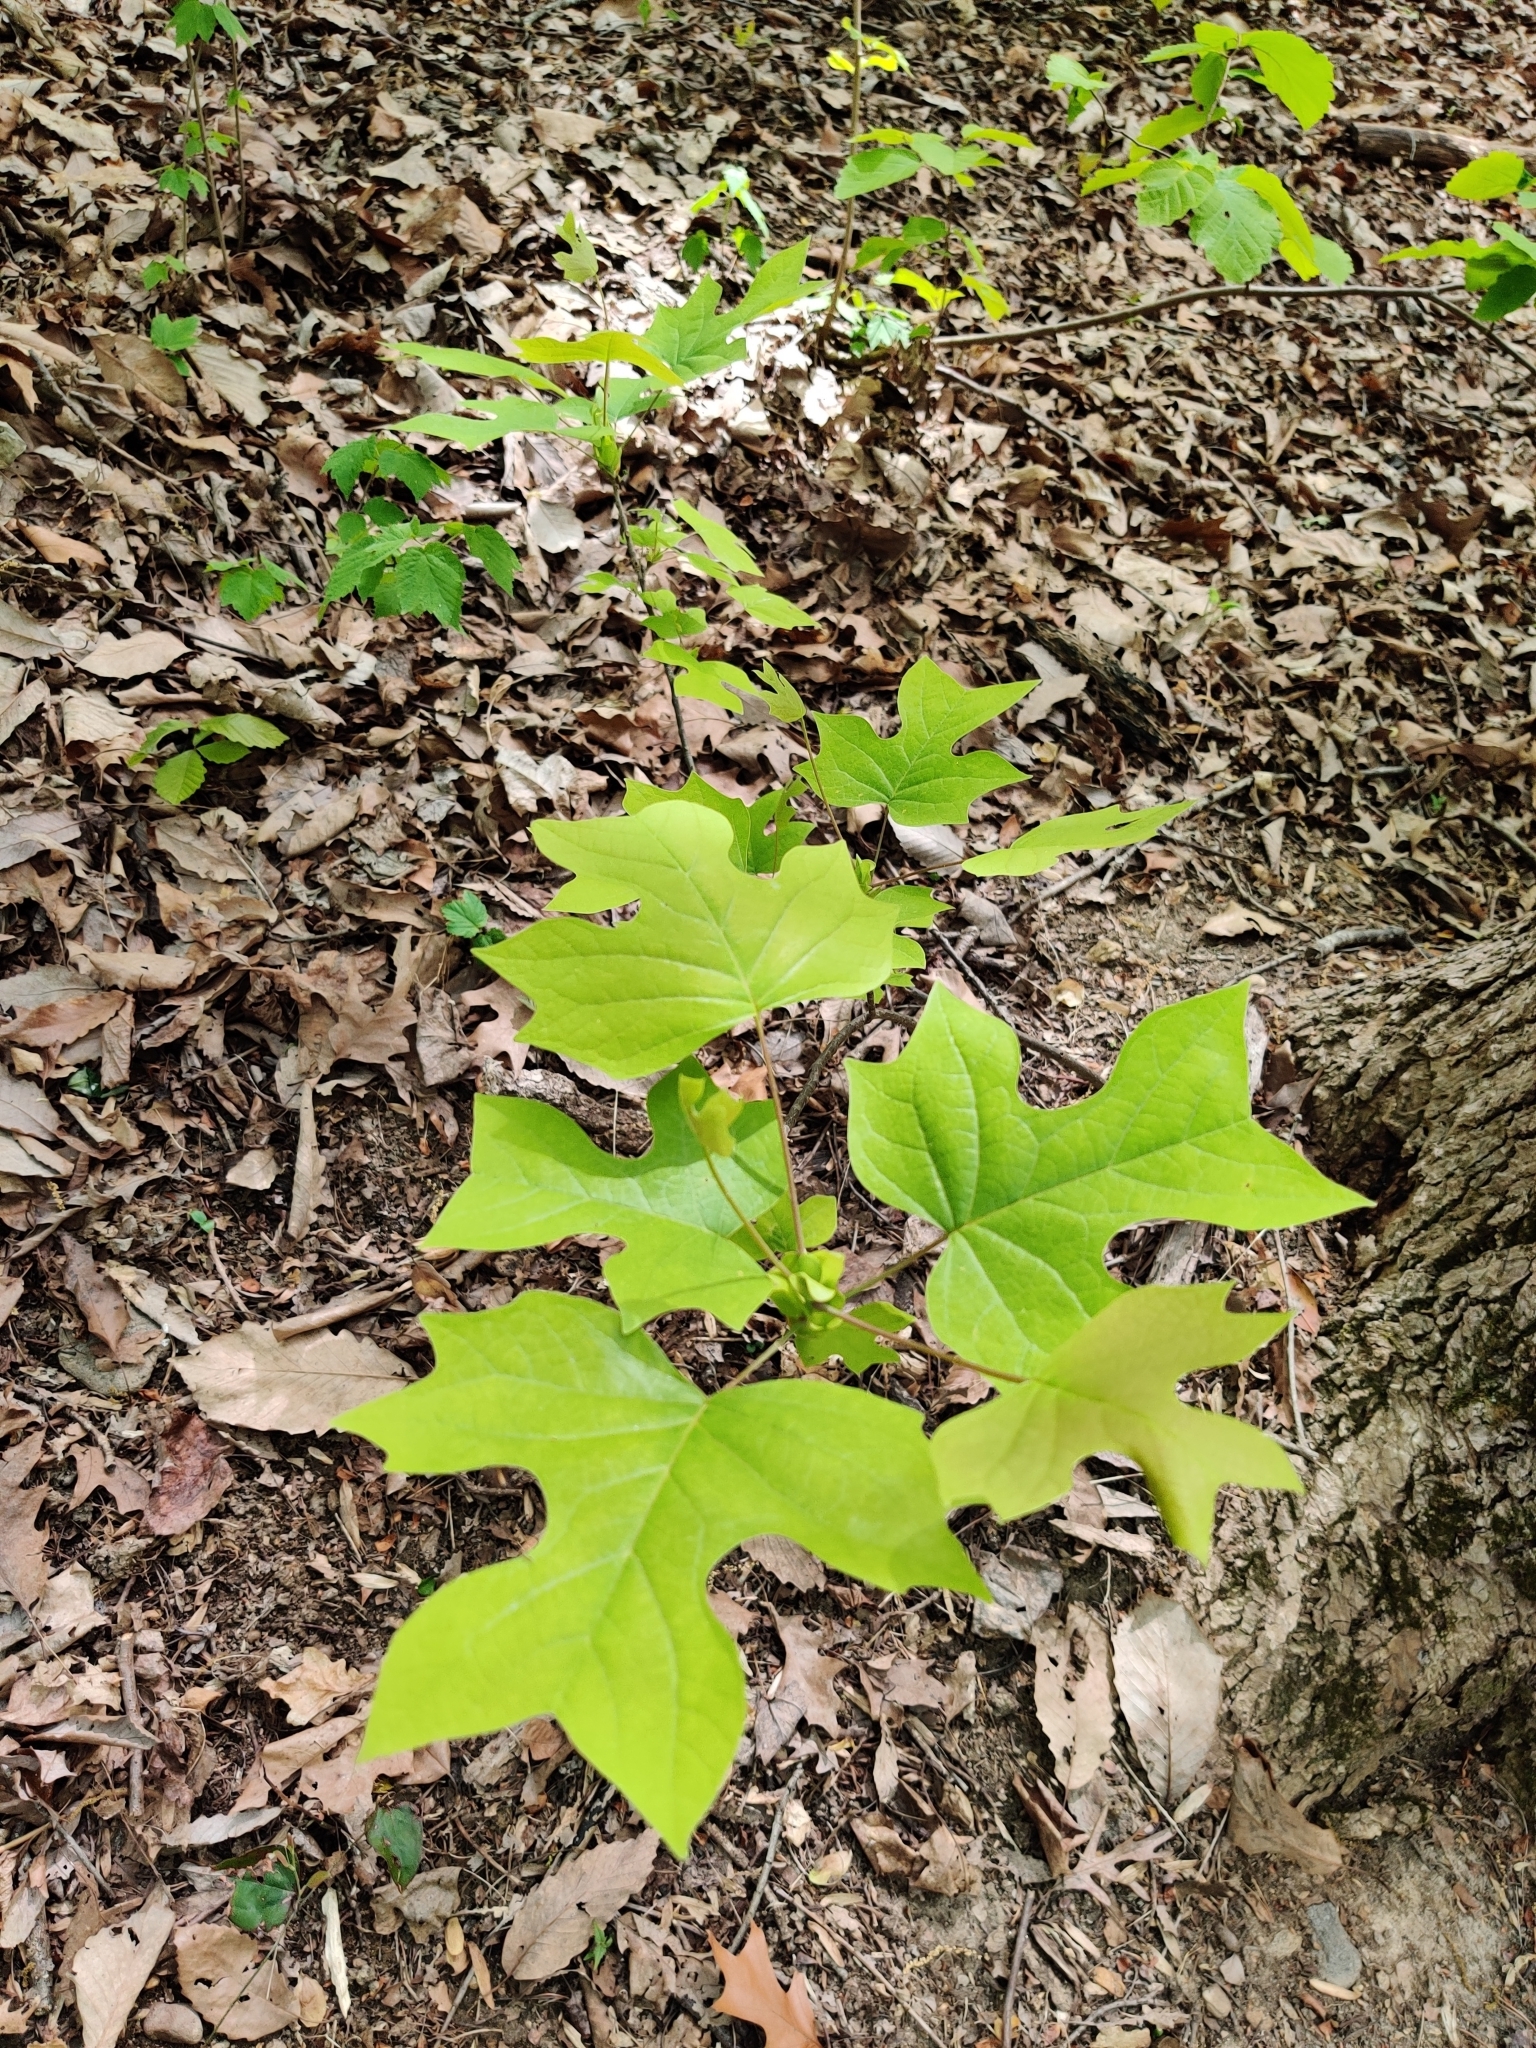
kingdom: Plantae
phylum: Tracheophyta
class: Magnoliopsida
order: Magnoliales
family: Magnoliaceae
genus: Liriodendron
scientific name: Liriodendron tulipifera
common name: Tulip tree
